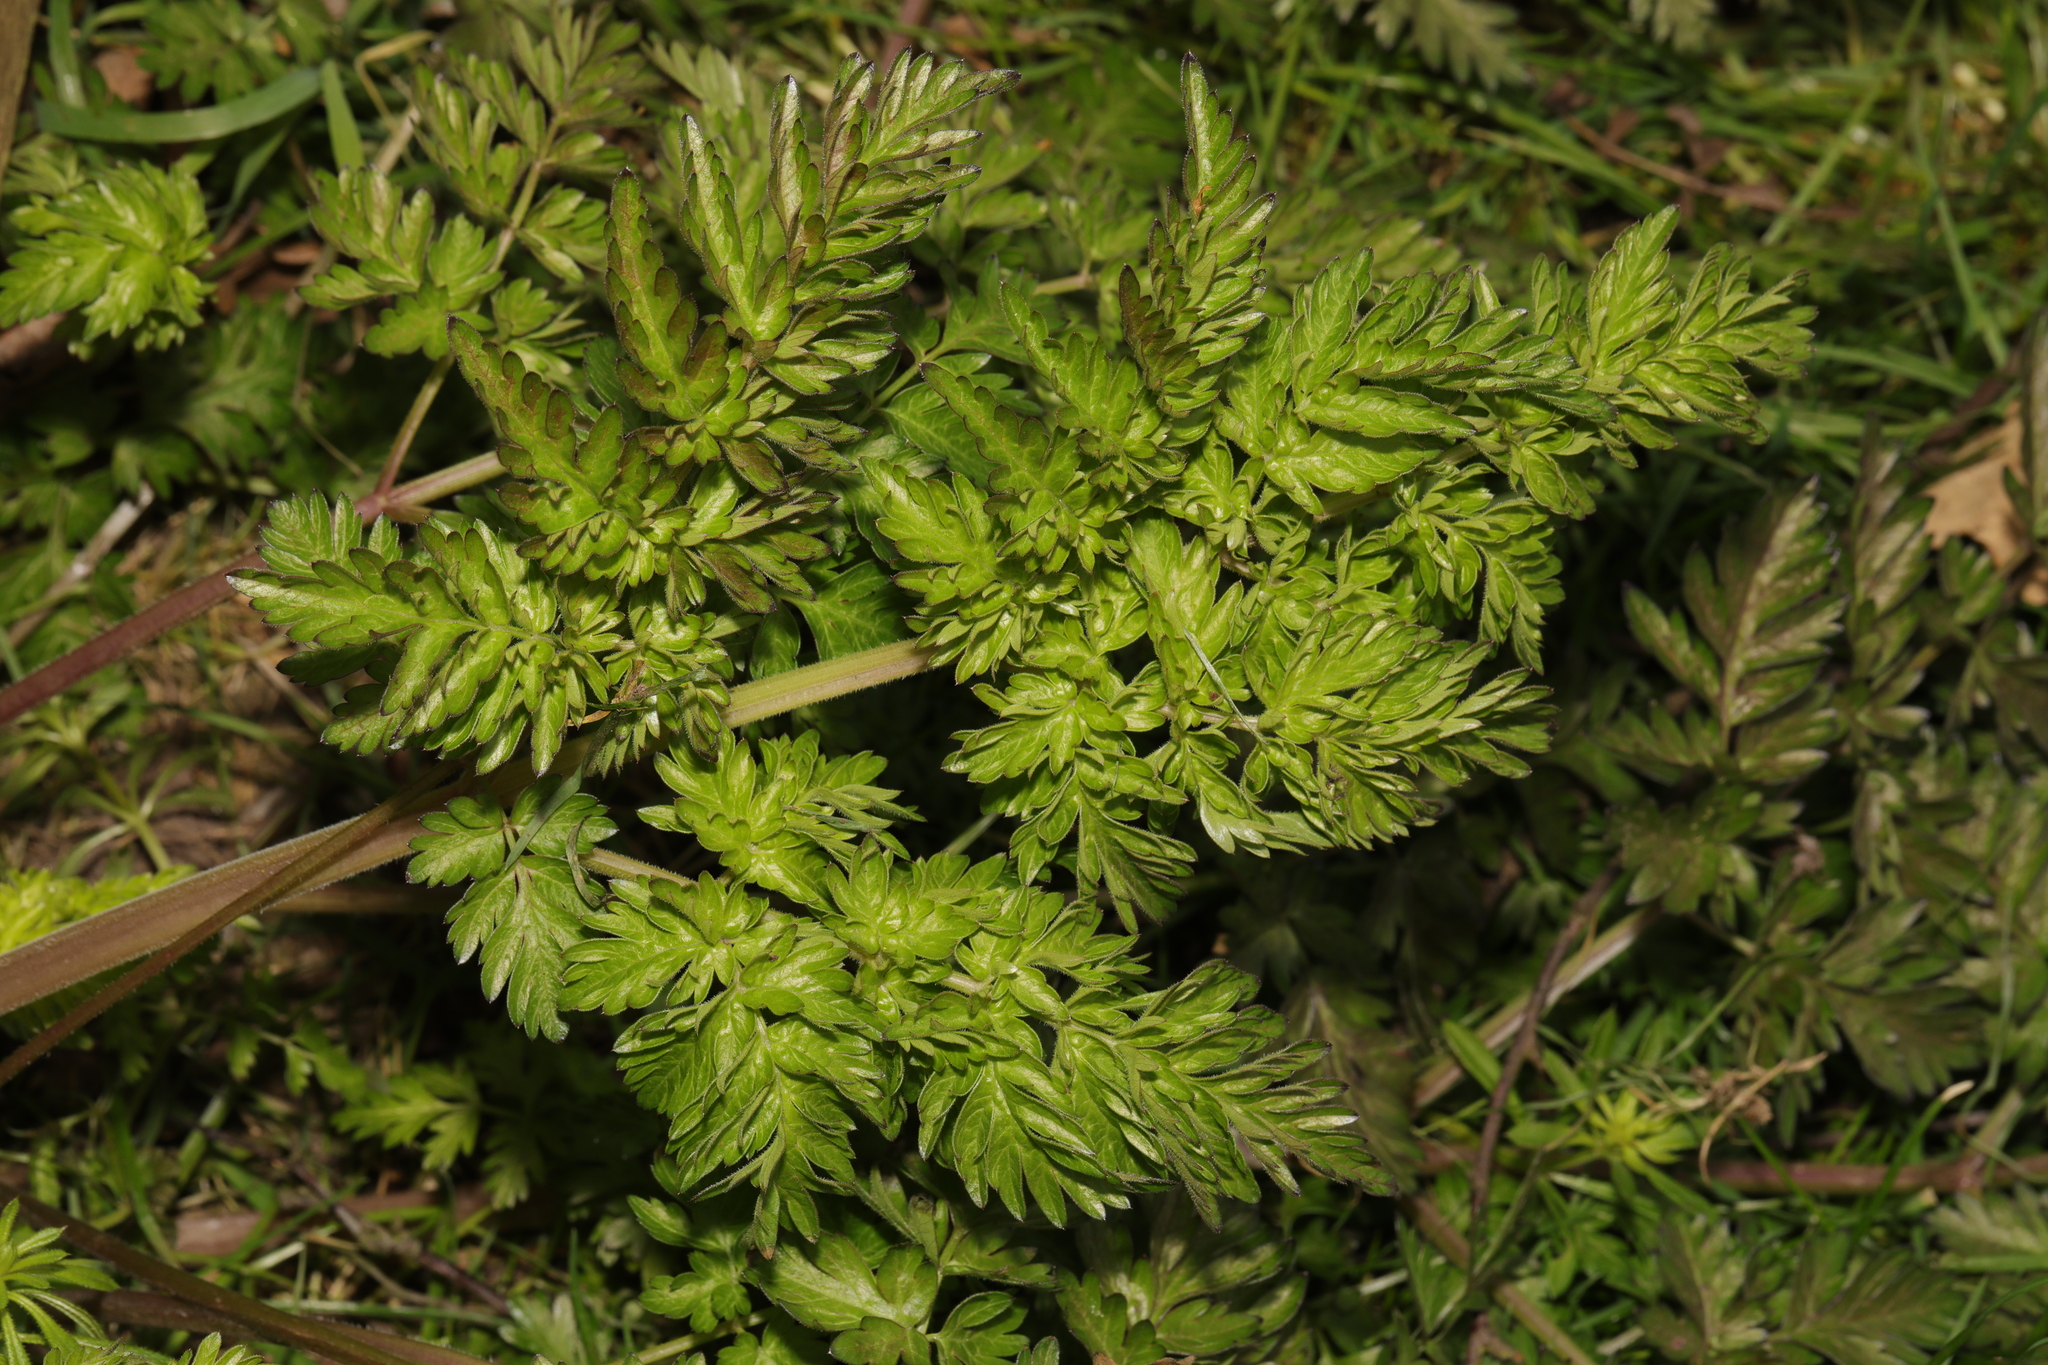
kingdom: Plantae
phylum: Tracheophyta
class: Magnoliopsida
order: Apiales
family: Apiaceae
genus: Anthriscus
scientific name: Anthriscus sylvestris
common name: Cow parsley
